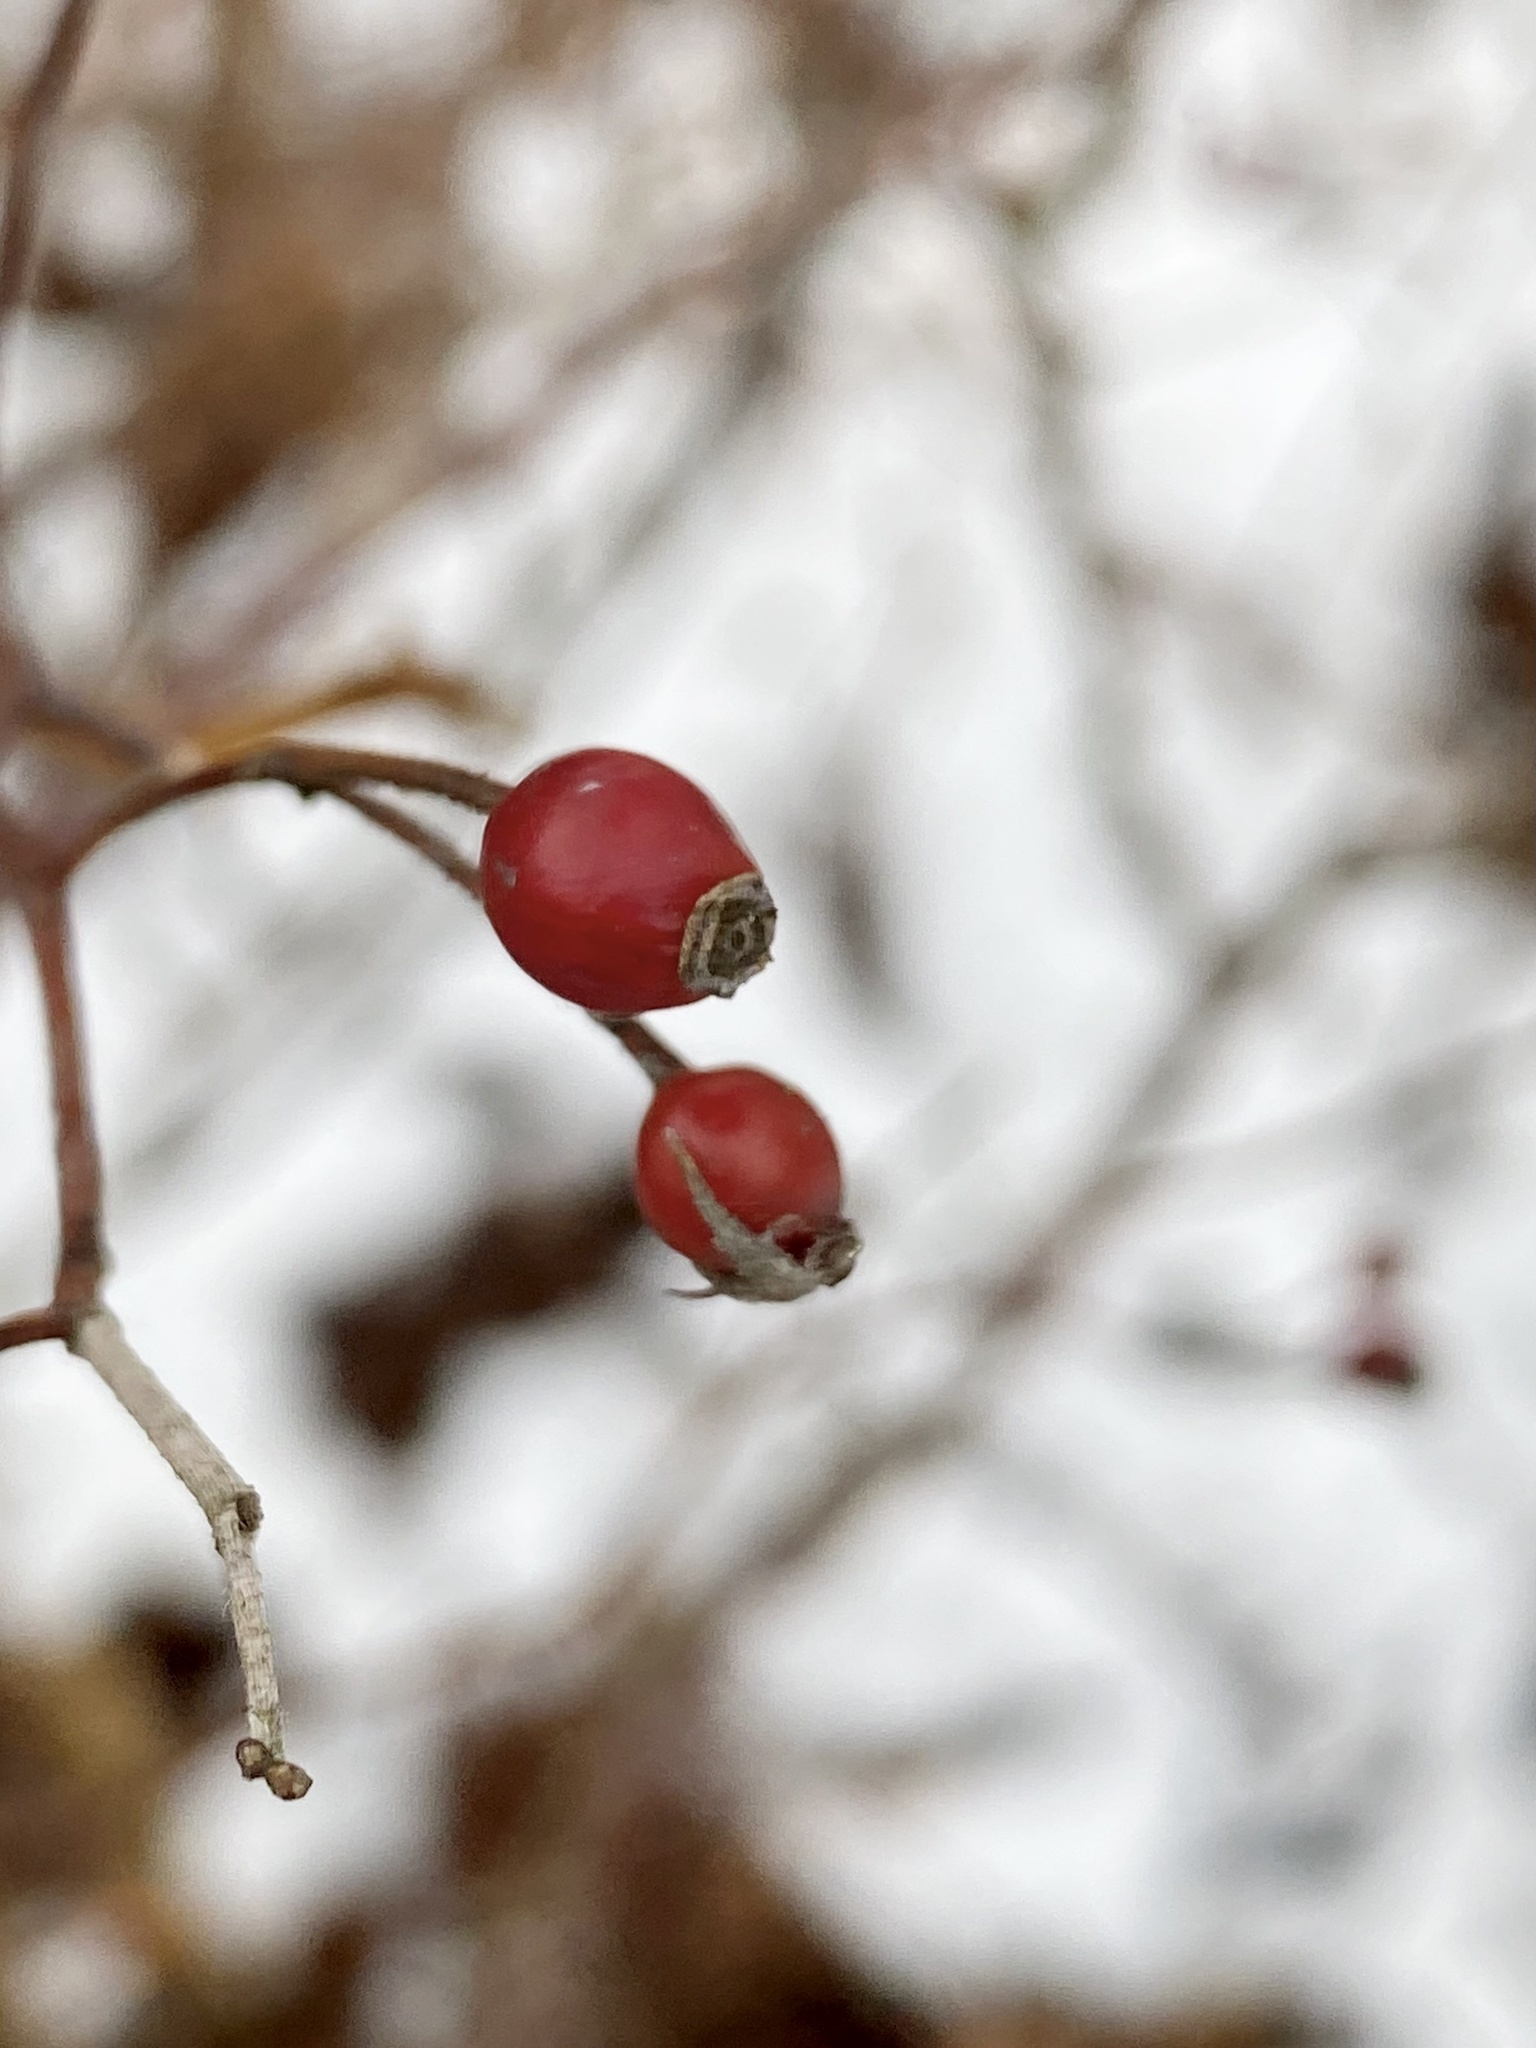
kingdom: Plantae
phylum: Tracheophyta
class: Magnoliopsida
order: Rosales
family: Rosaceae
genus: Rosa
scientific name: Rosa multiflora
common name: Multiflora rose
